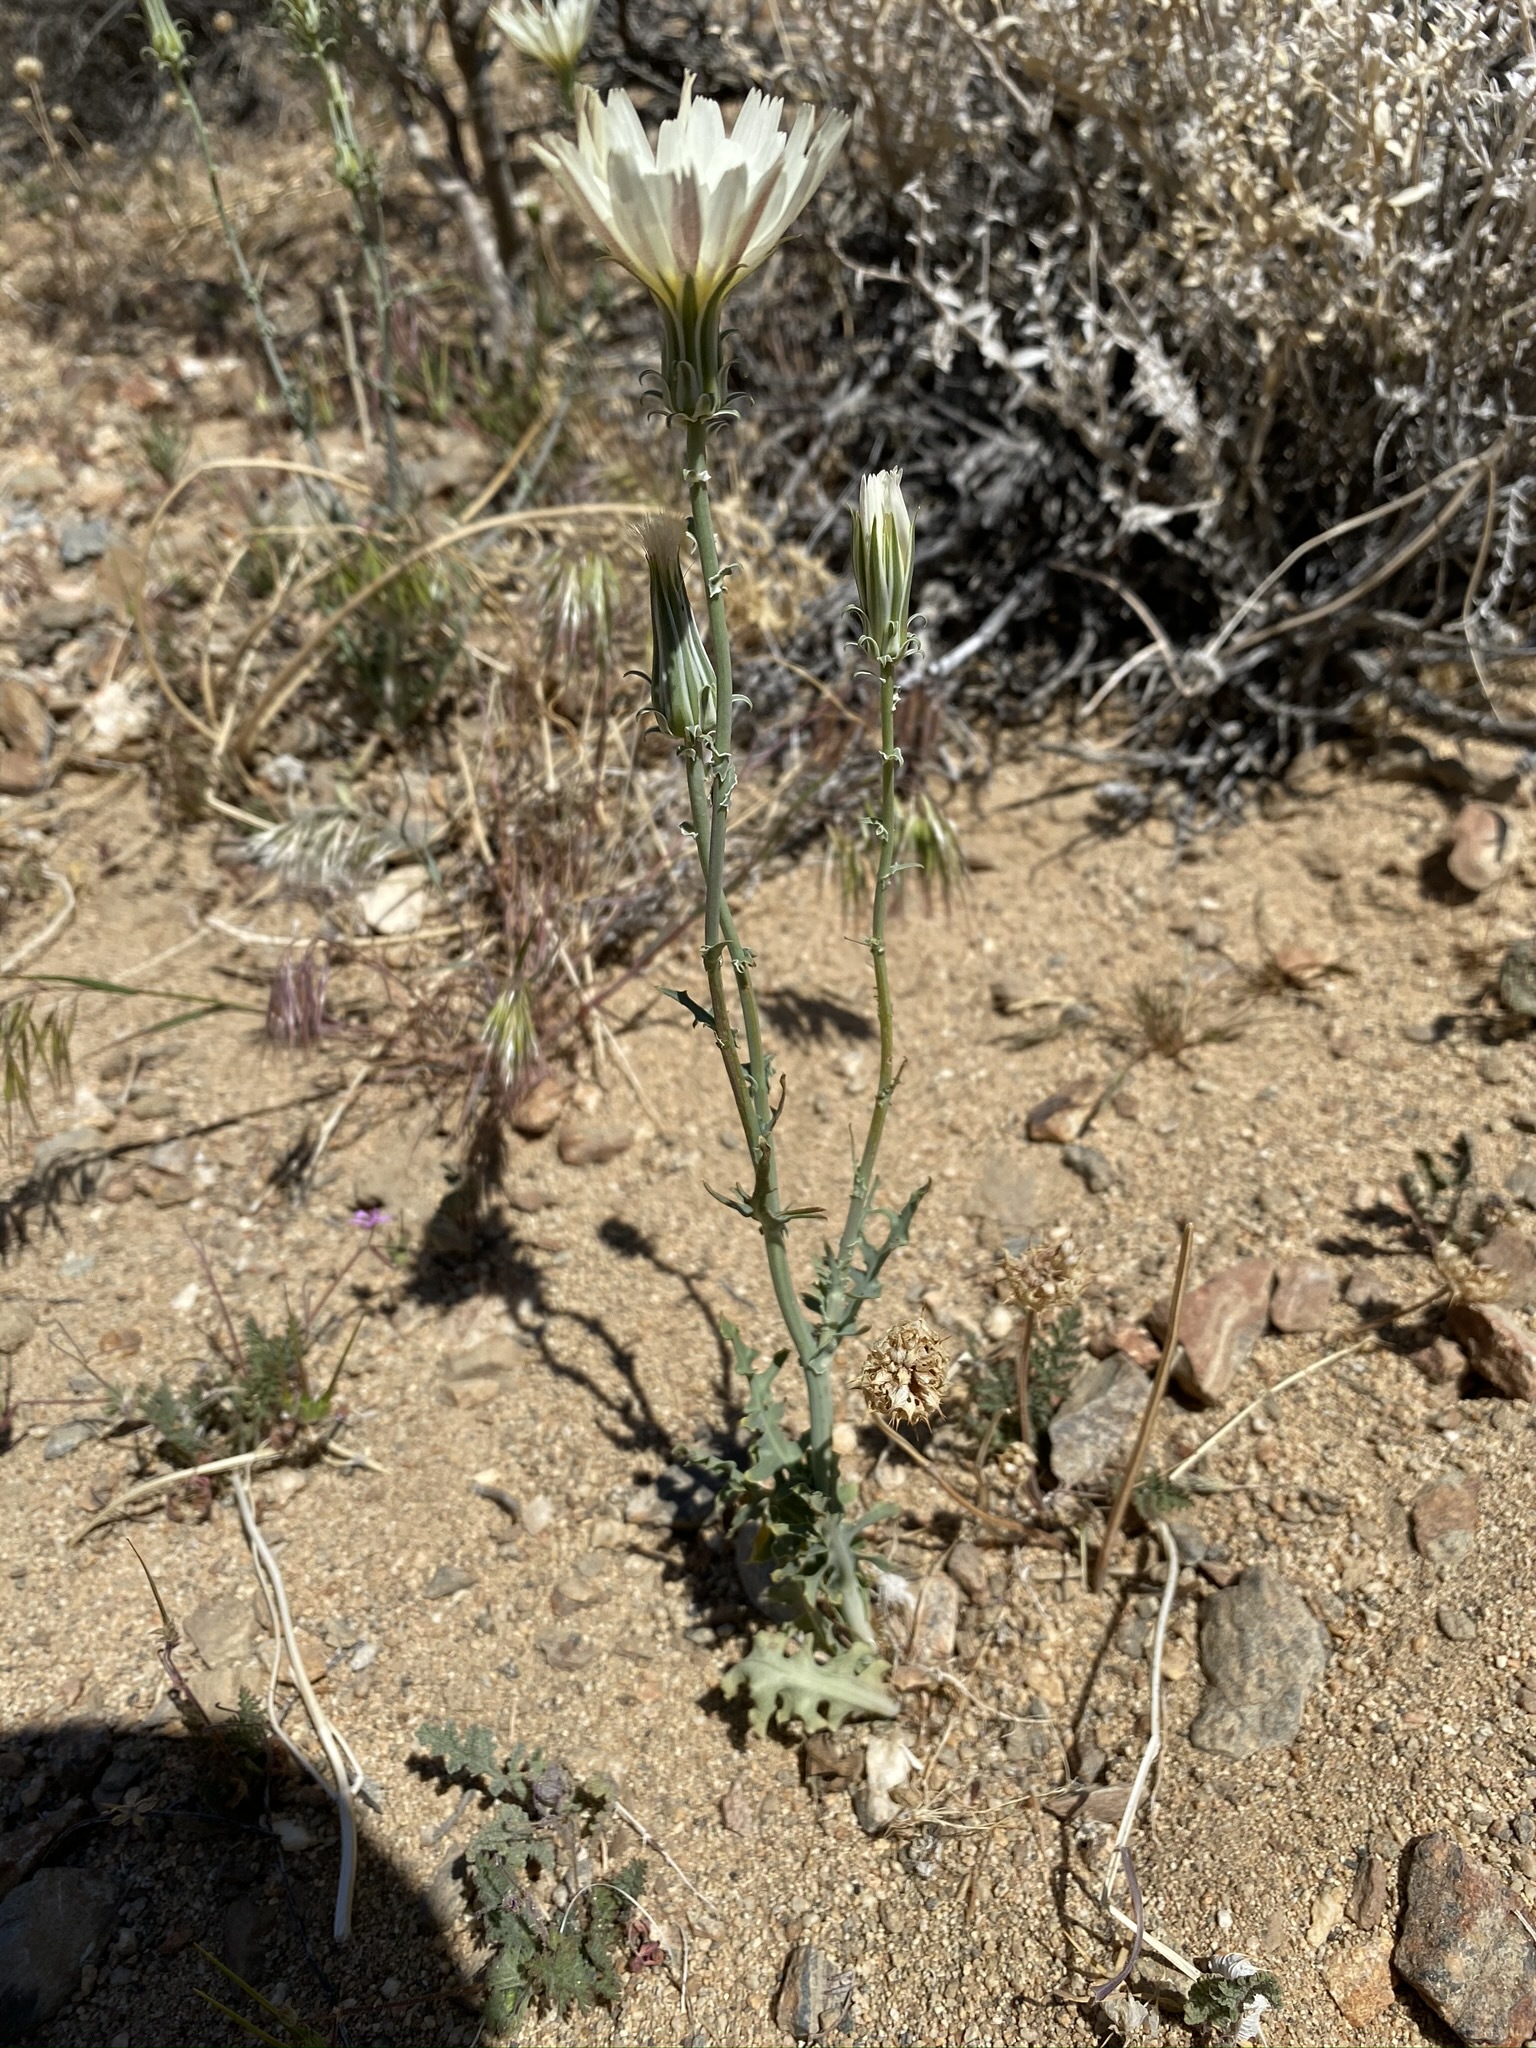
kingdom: Plantae
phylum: Tracheophyta
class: Magnoliopsida
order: Asterales
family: Asteraceae
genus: Rafinesquia
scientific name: Rafinesquia neomexicana
